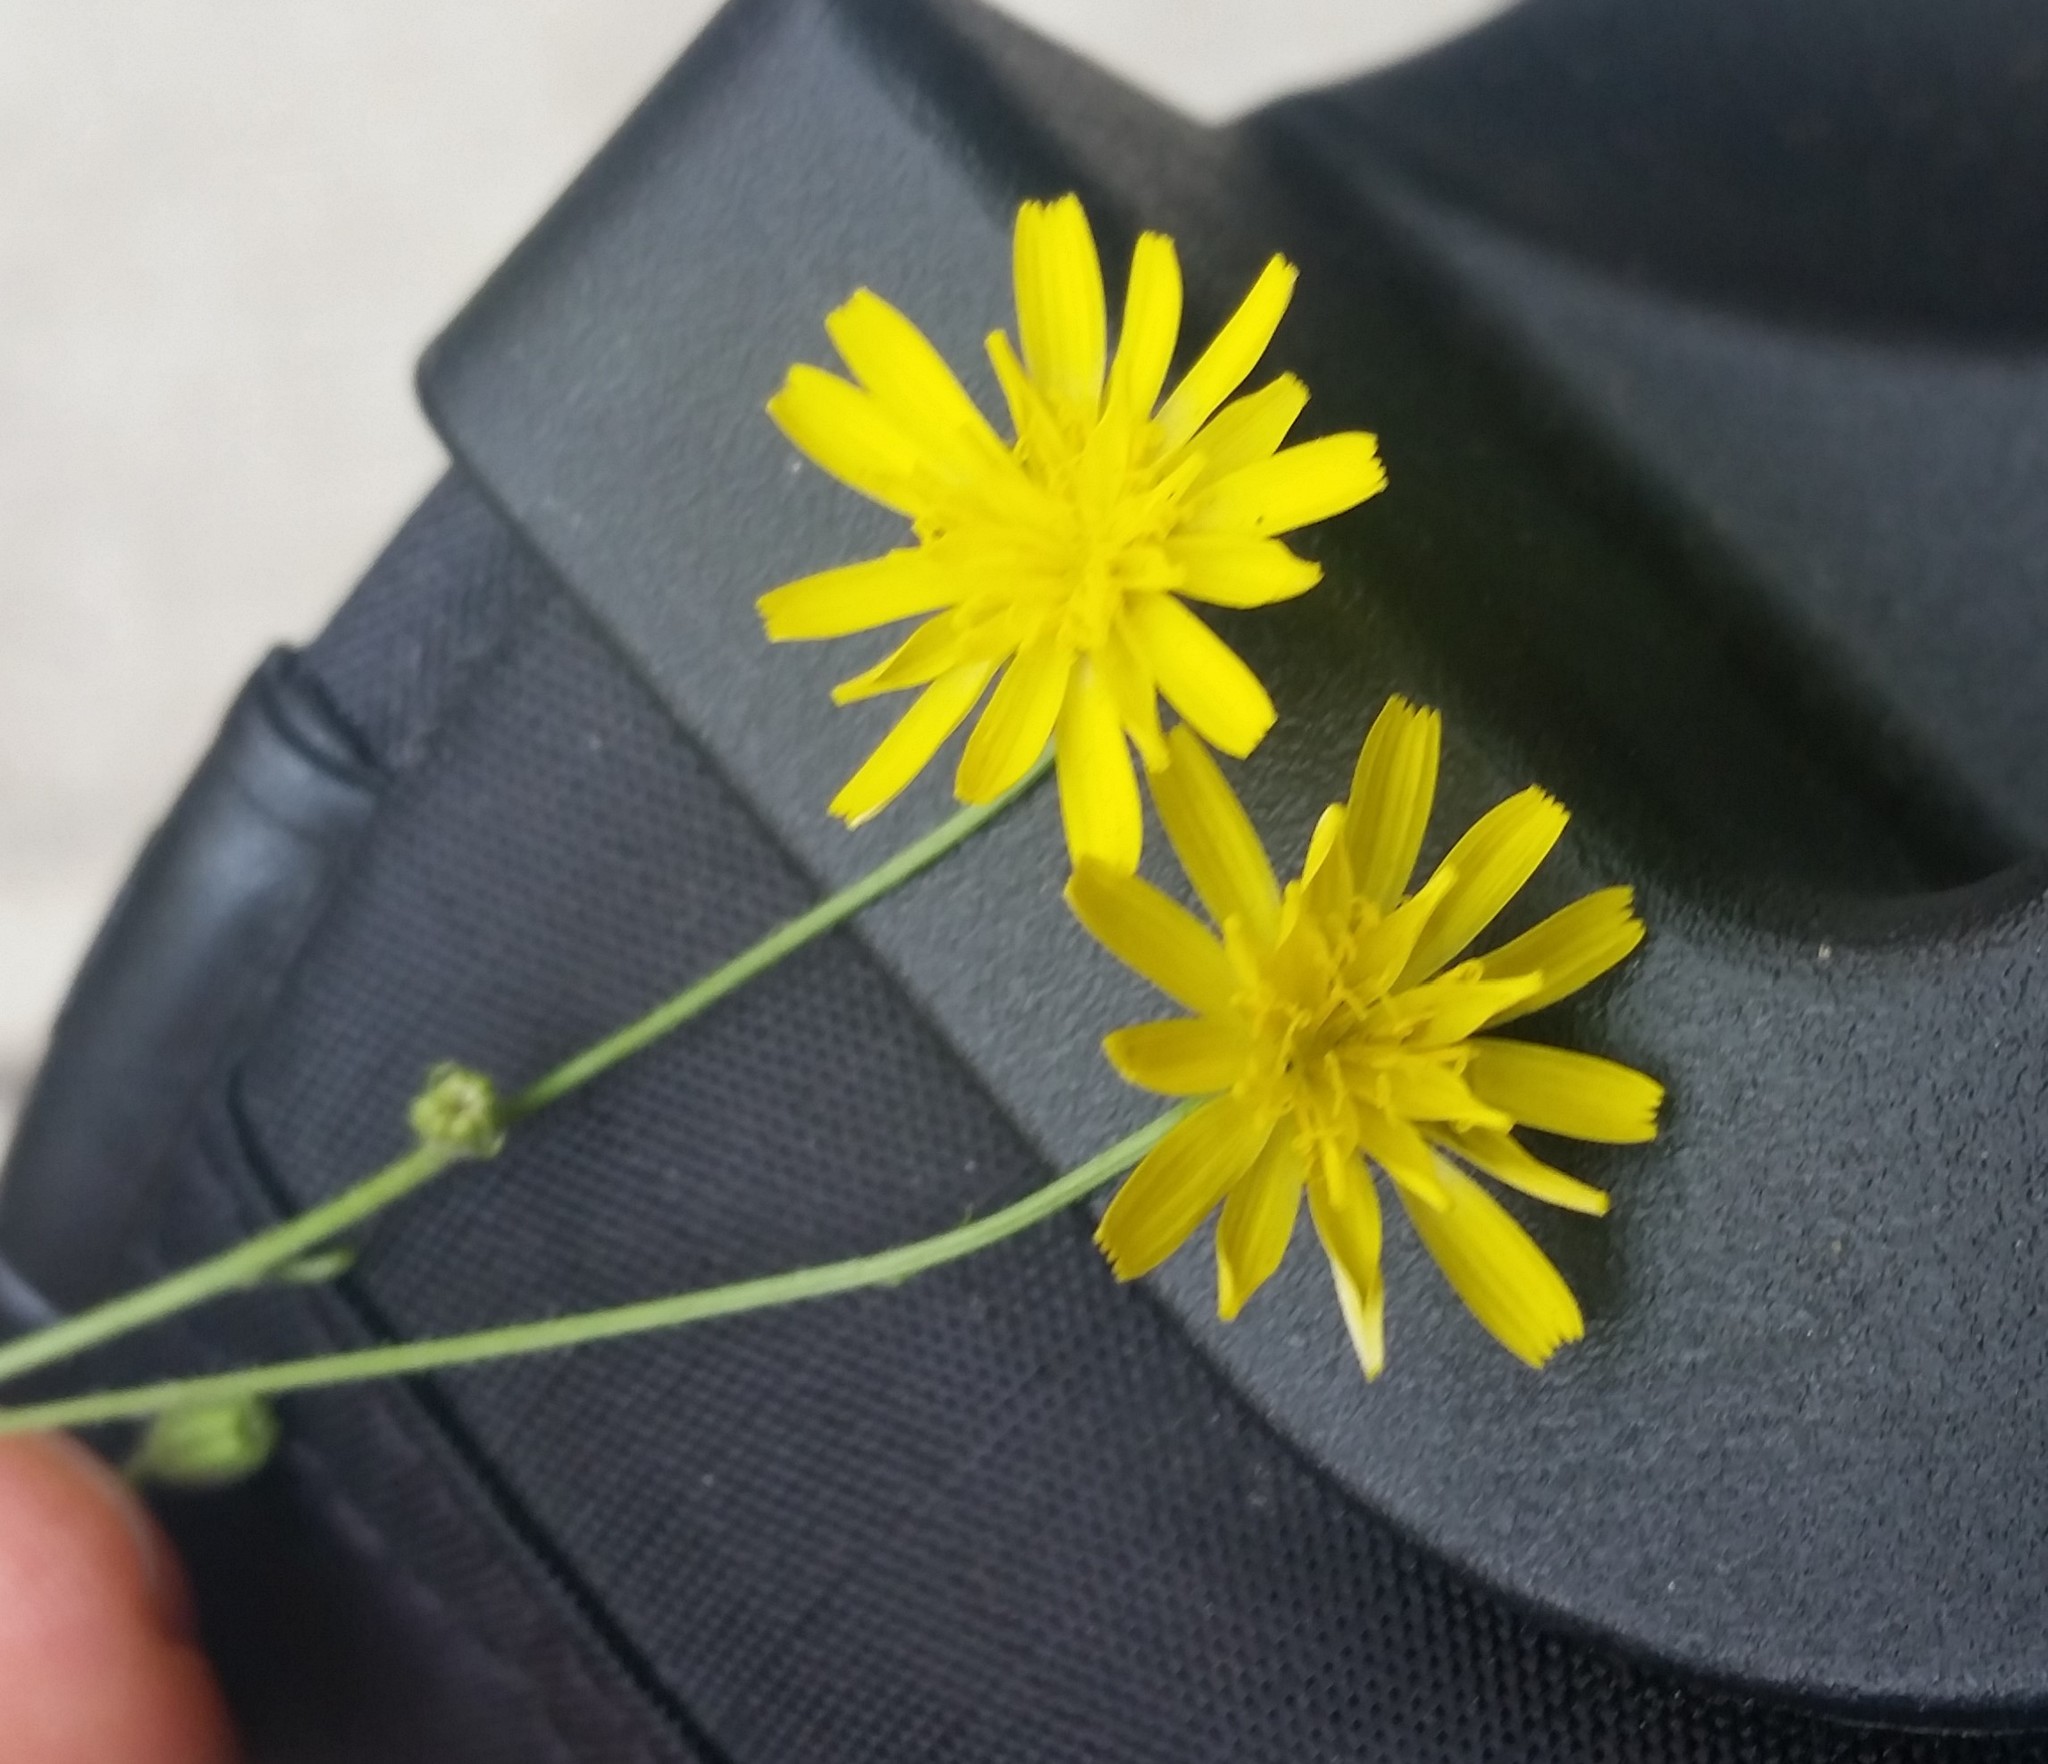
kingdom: Plantae
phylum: Tracheophyta
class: Magnoliopsida
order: Asterales
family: Asteraceae
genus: Crepis
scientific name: Crepis capillaris
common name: Smooth hawksbeard
